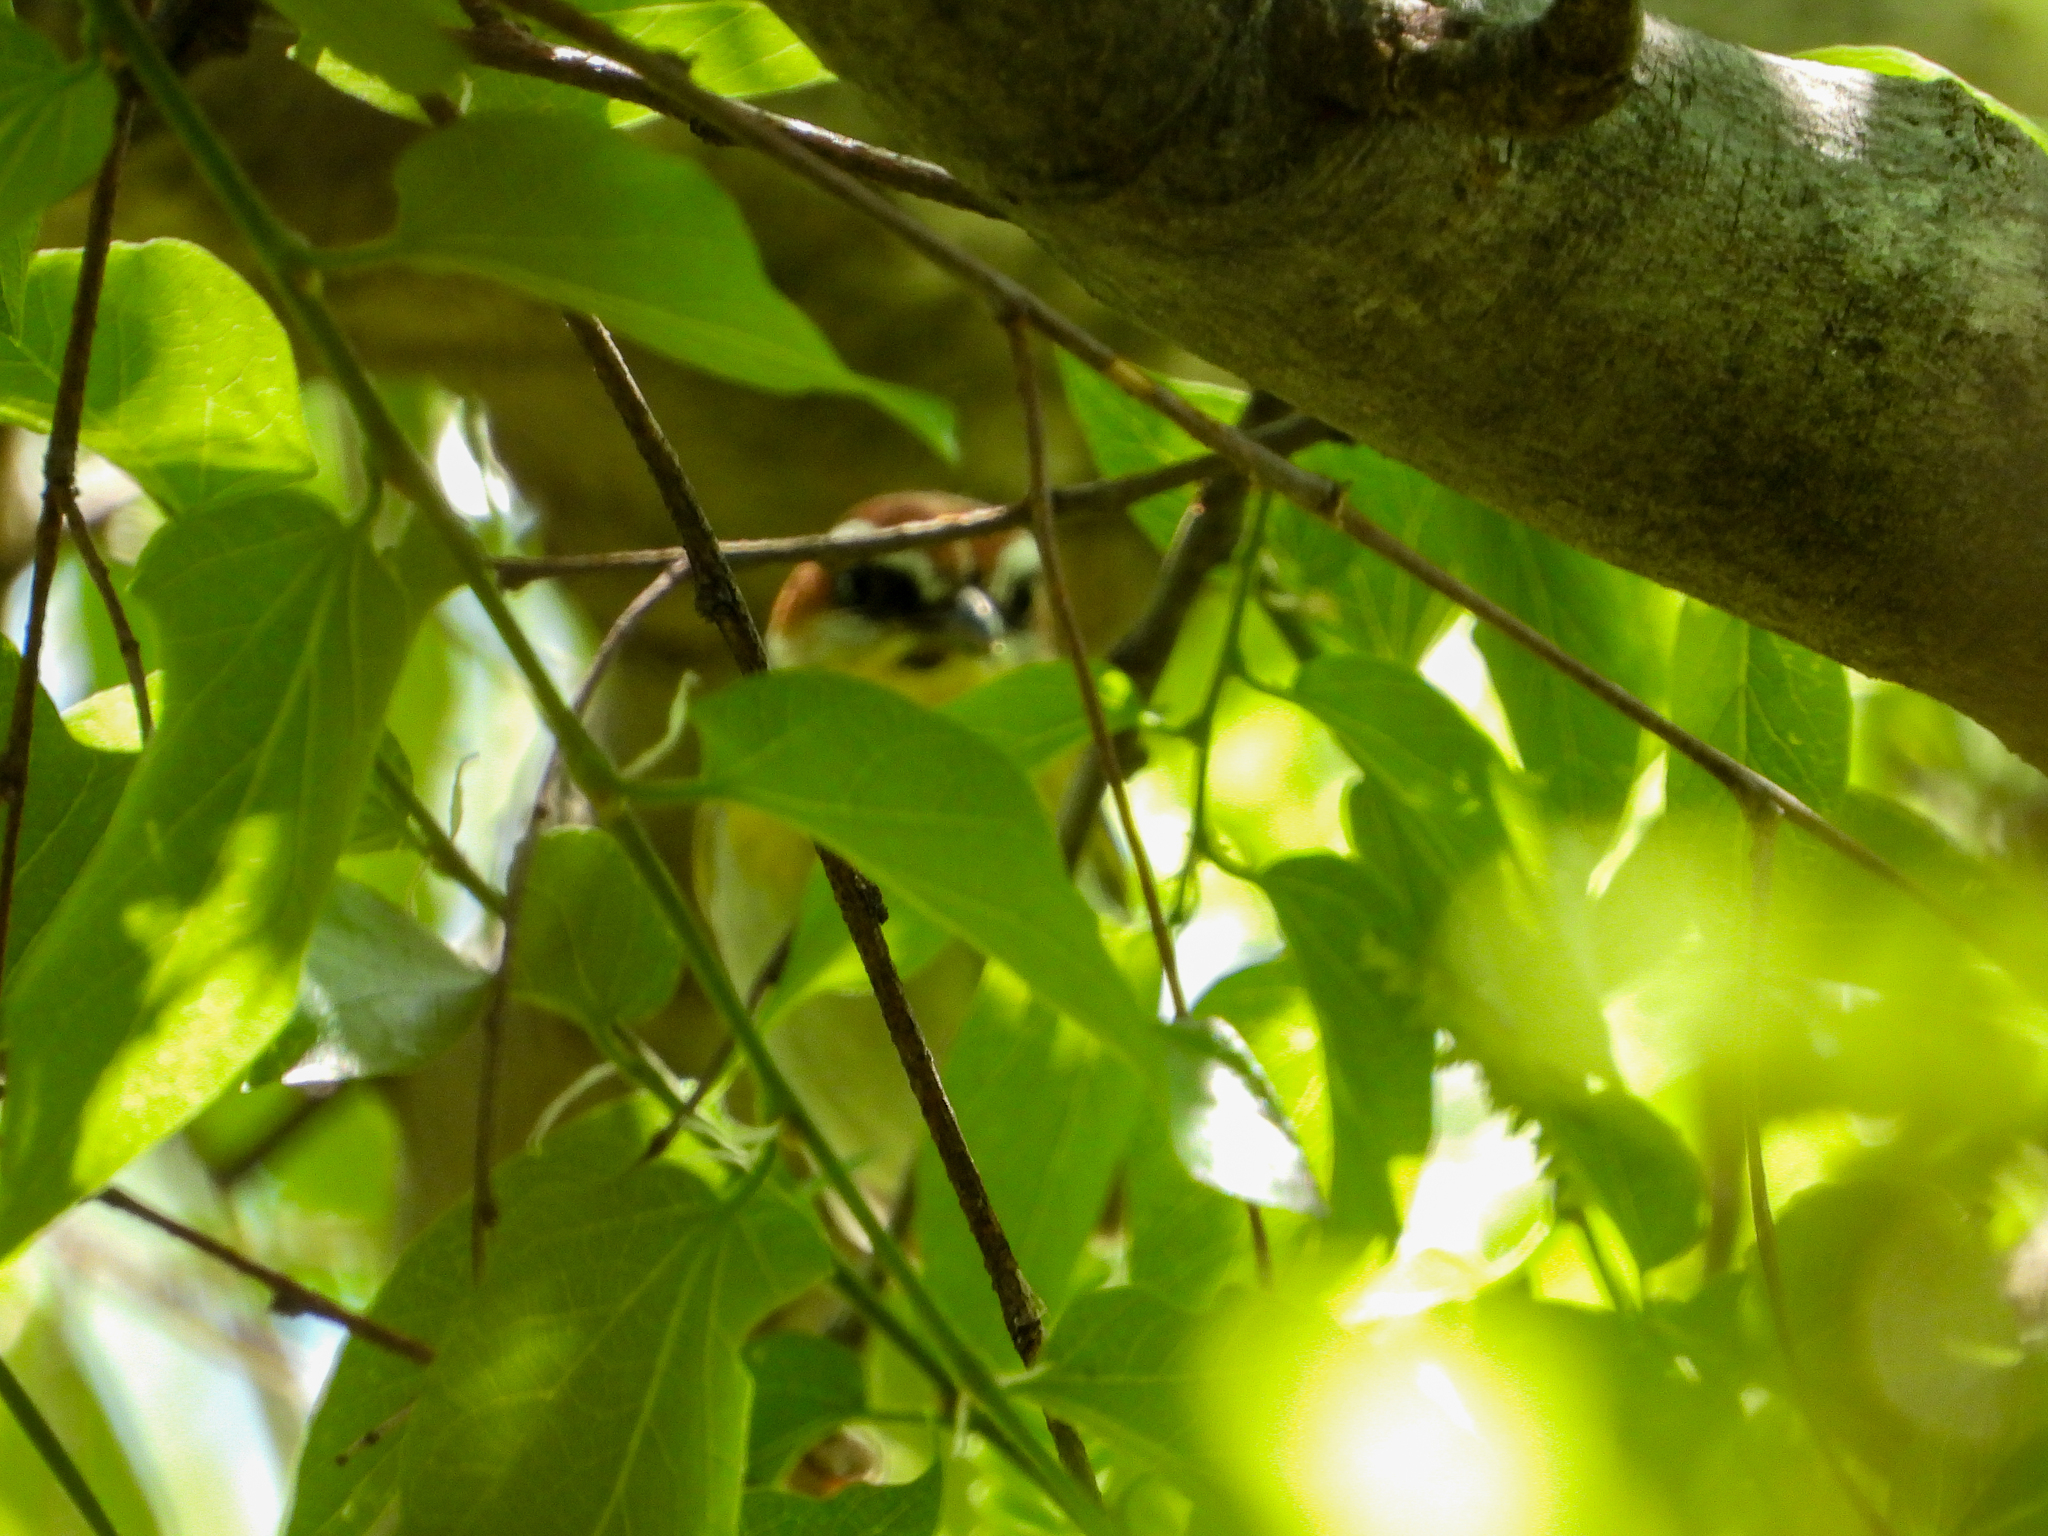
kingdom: Animalia
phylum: Chordata
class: Aves
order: Passeriformes
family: Parulidae
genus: Basileuterus
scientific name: Basileuterus rufifrons
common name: Rufous-capped warbler
